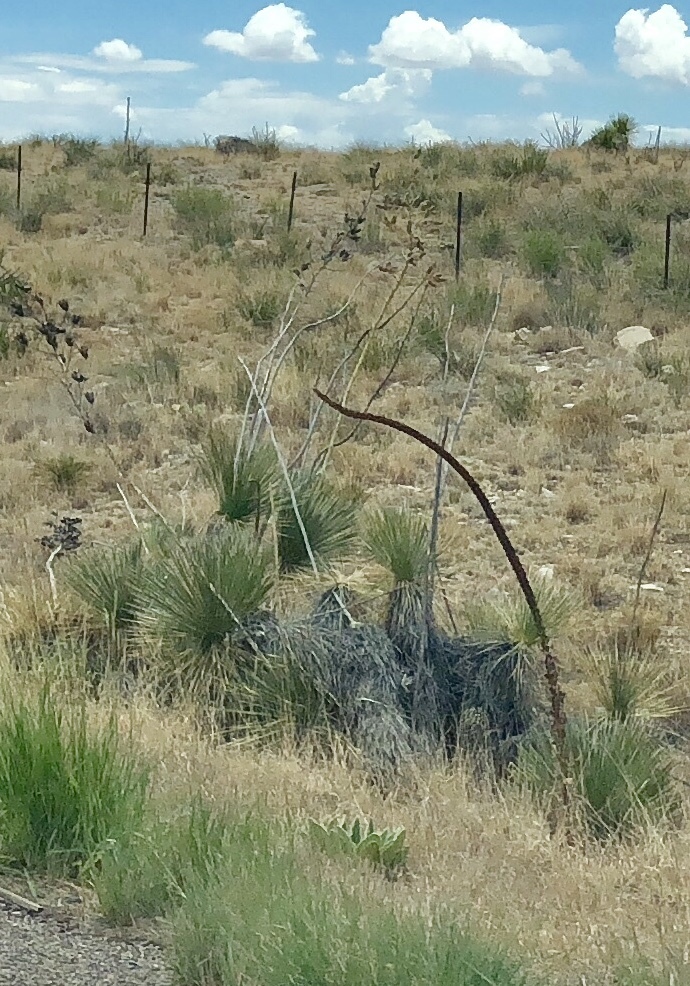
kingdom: Plantae
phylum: Tracheophyta
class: Liliopsida
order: Asparagales
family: Asparagaceae
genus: Yucca
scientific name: Yucca elata
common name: Palmella
